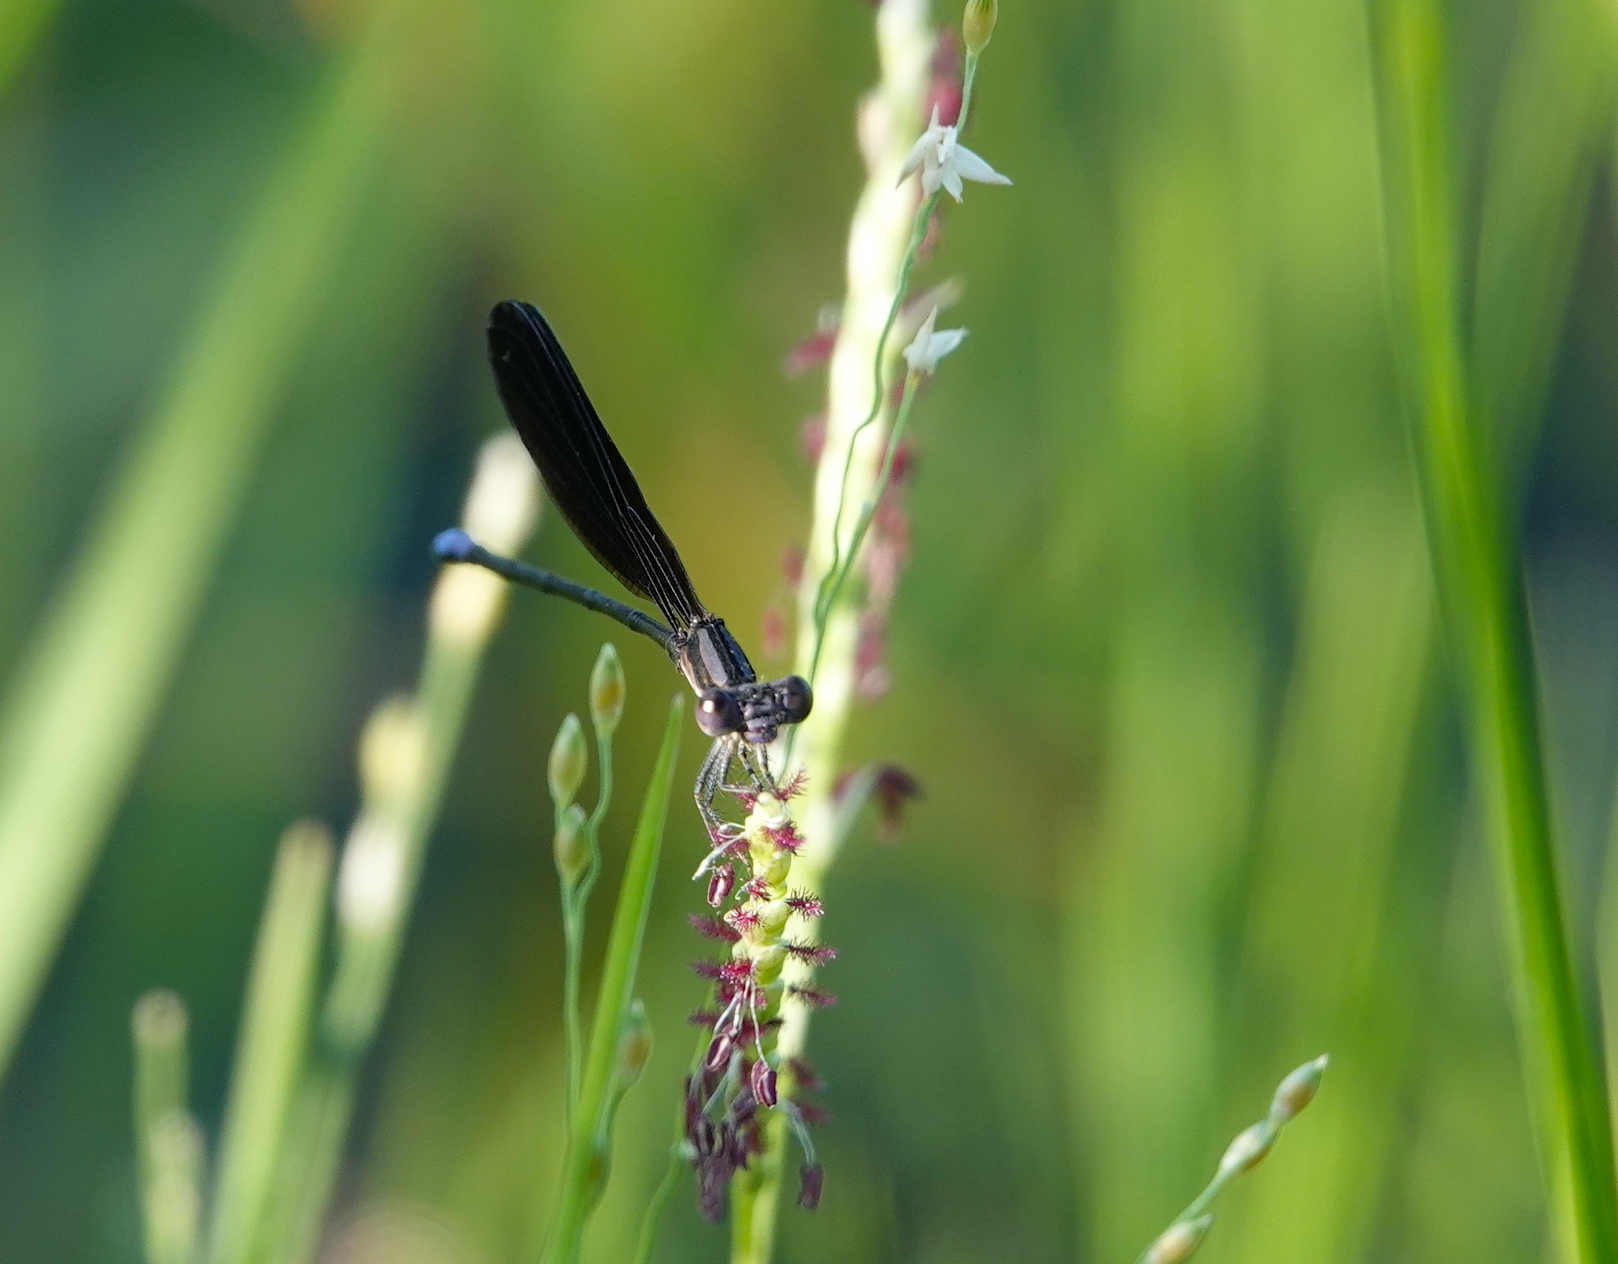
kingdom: Animalia
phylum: Arthropoda
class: Insecta
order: Odonata
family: Coenagrionidae
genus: Argia
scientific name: Argia fumipennis
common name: Variable dancer
